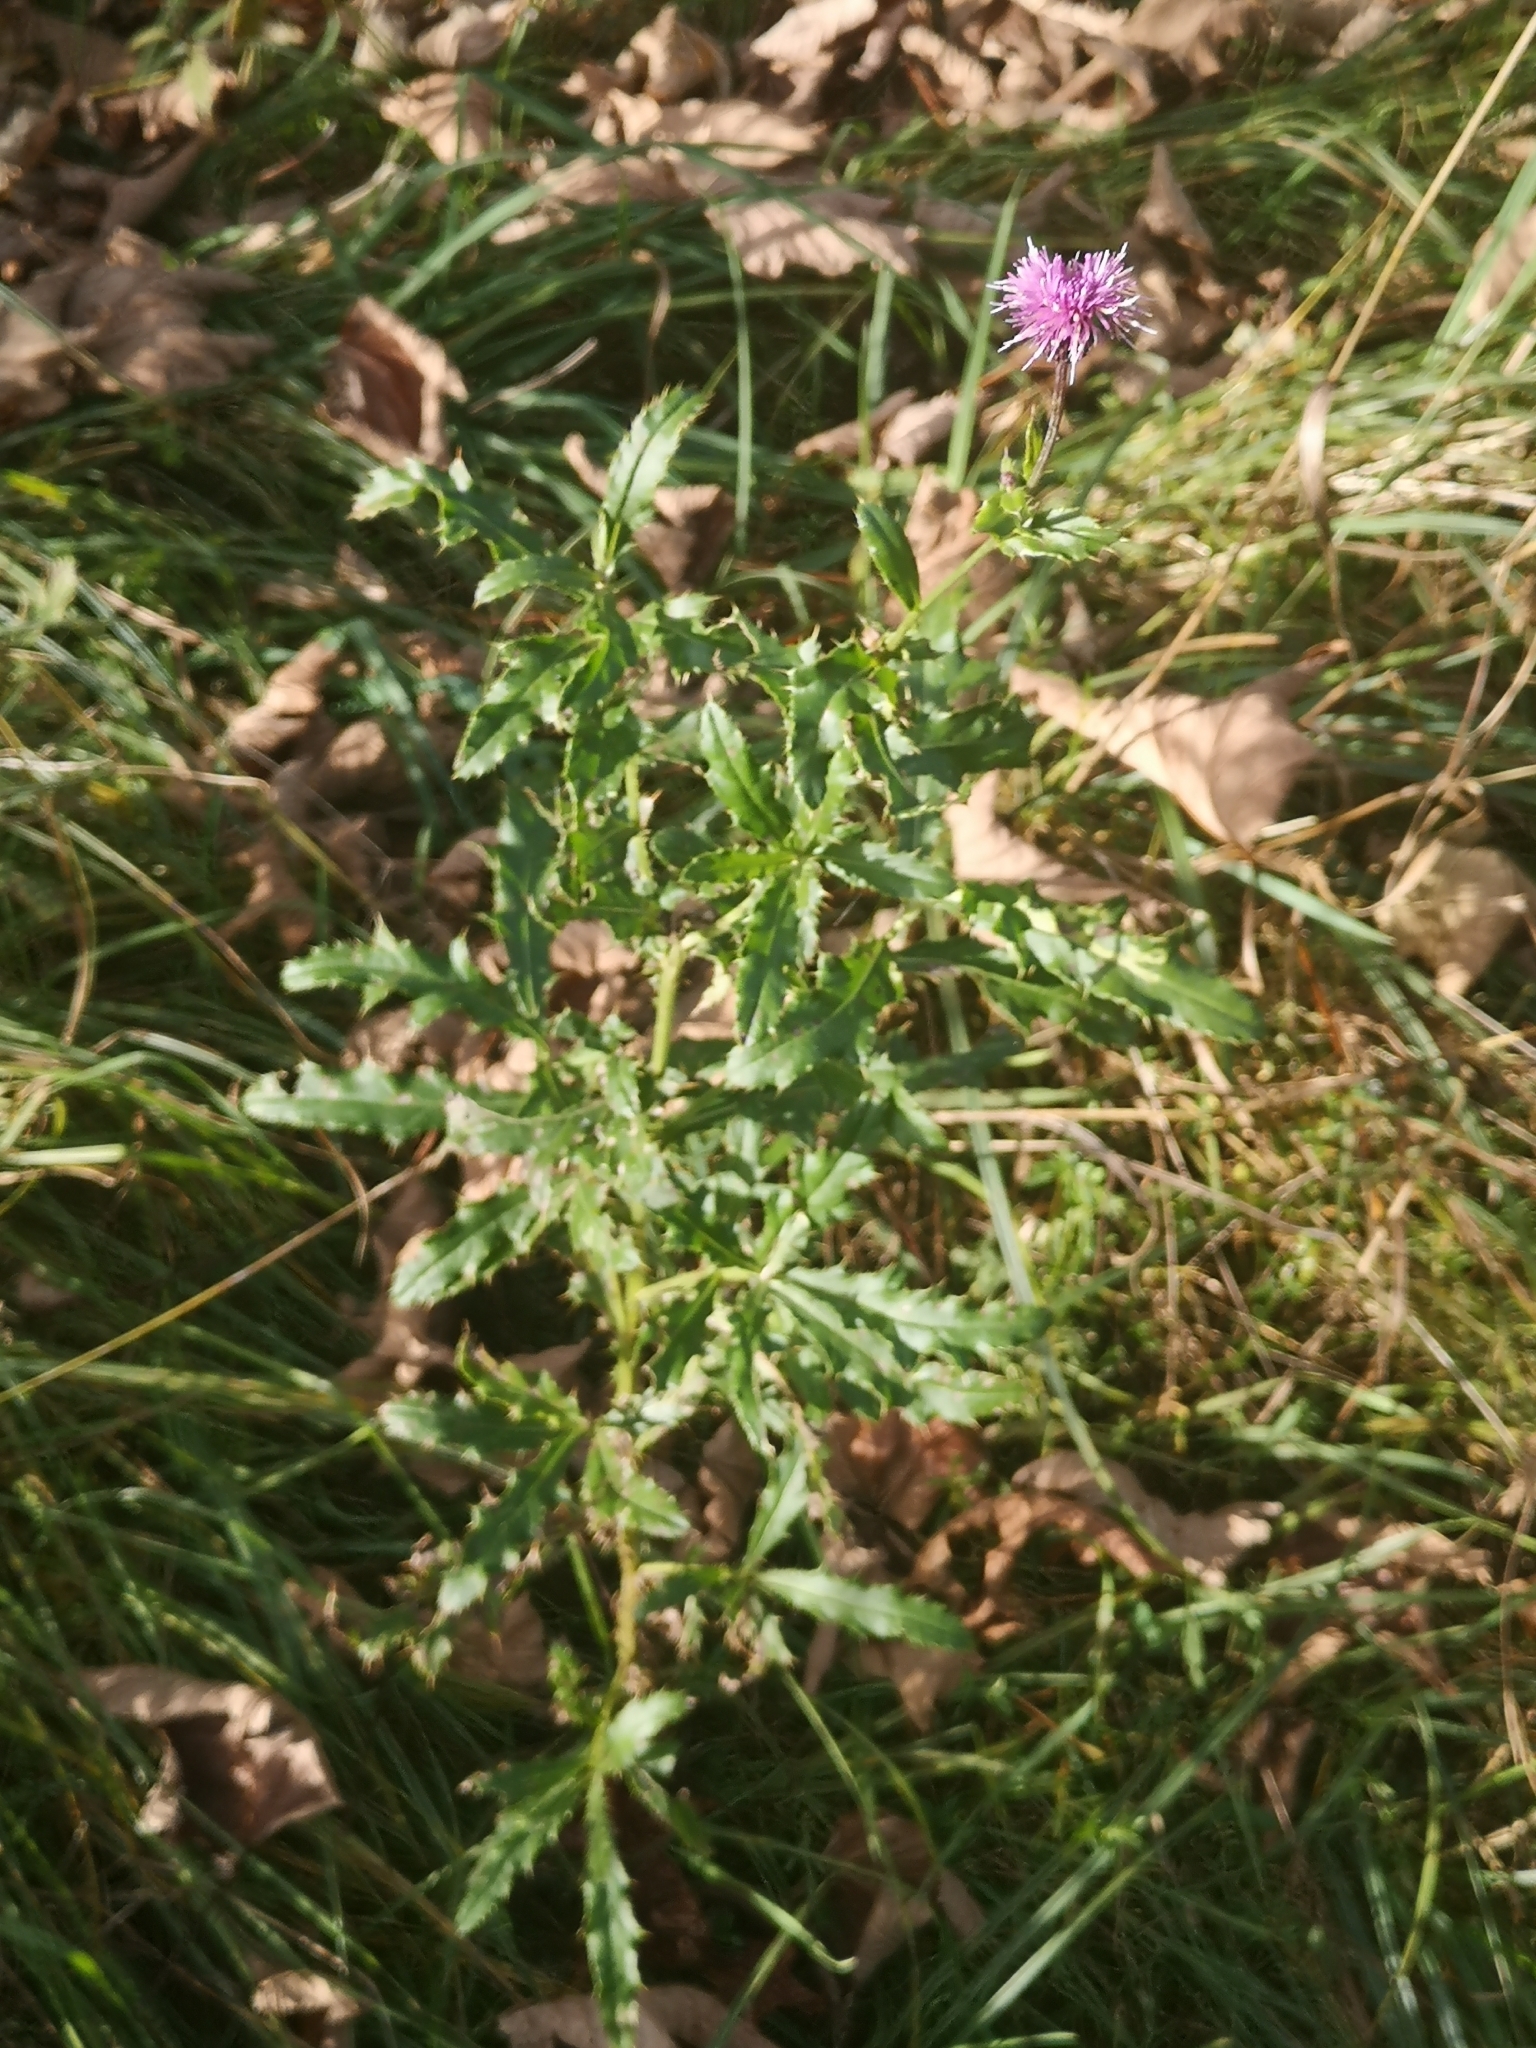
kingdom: Plantae
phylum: Tracheophyta
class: Magnoliopsida
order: Asterales
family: Asteraceae
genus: Cirsium
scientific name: Cirsium arvense
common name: Creeping thistle
